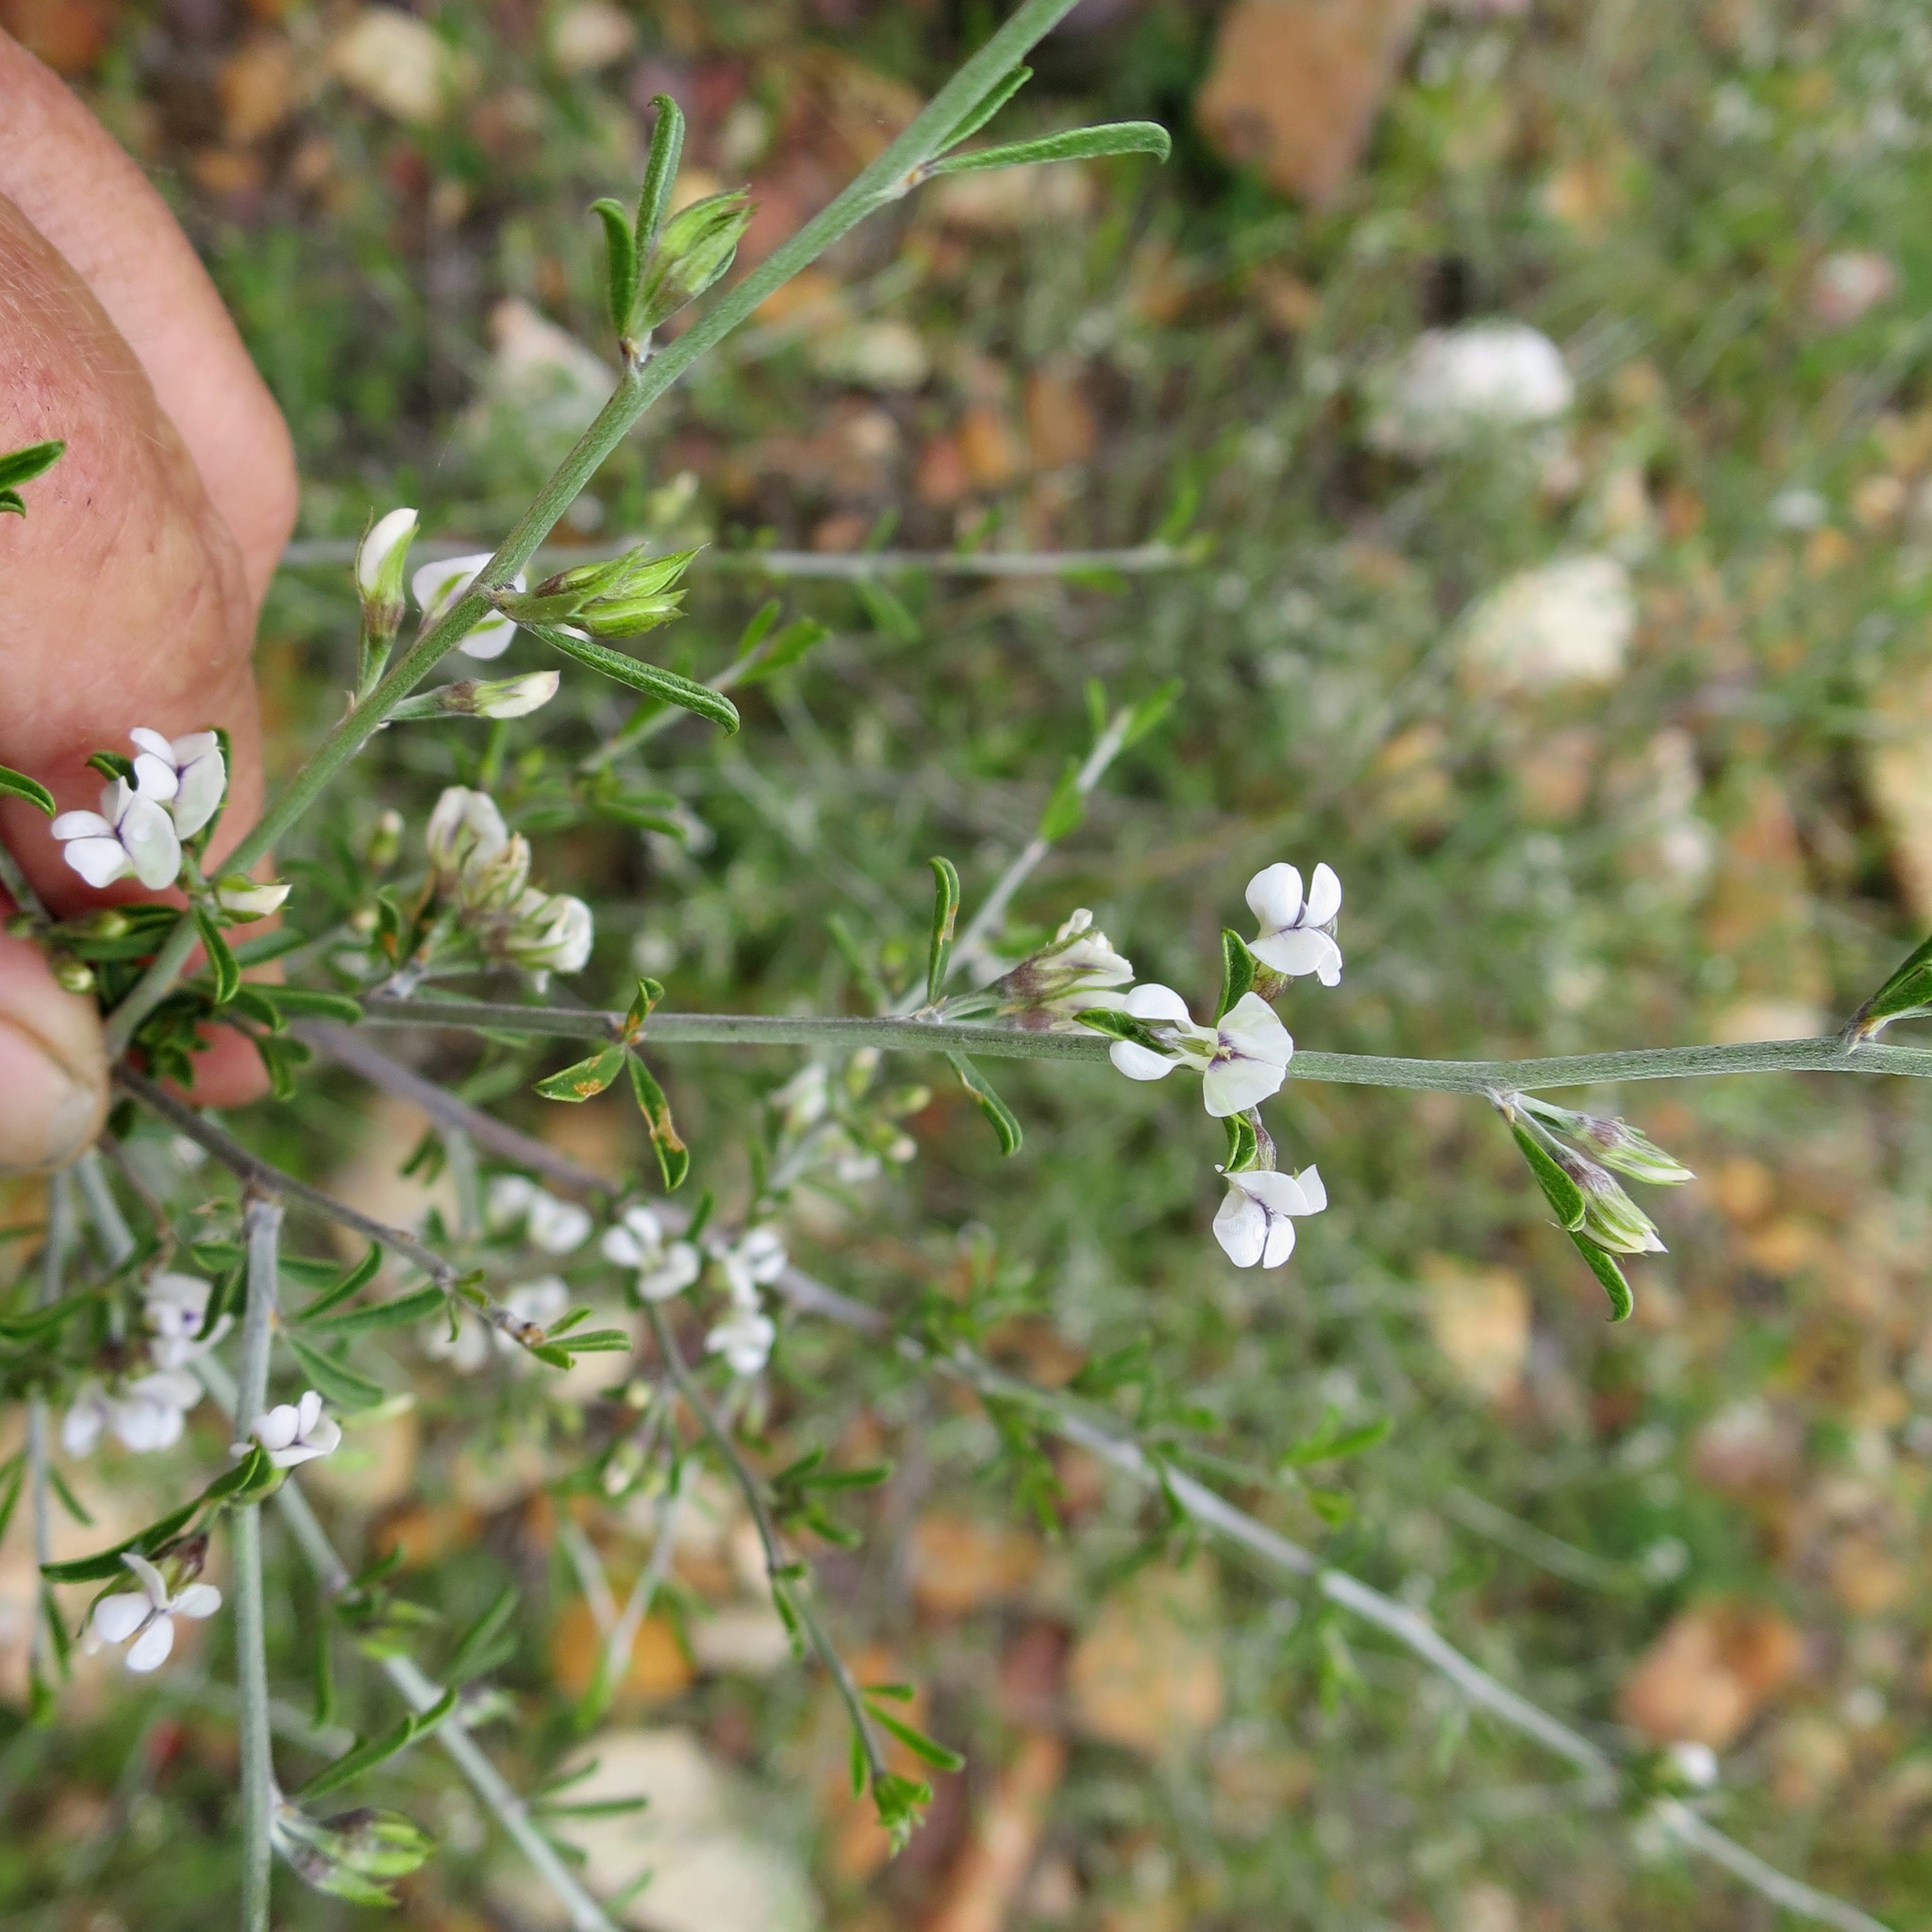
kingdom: Plantae
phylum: Tracheophyta
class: Magnoliopsida
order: Fabales
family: Fabaceae
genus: Psoralea
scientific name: Psoralea candicans
